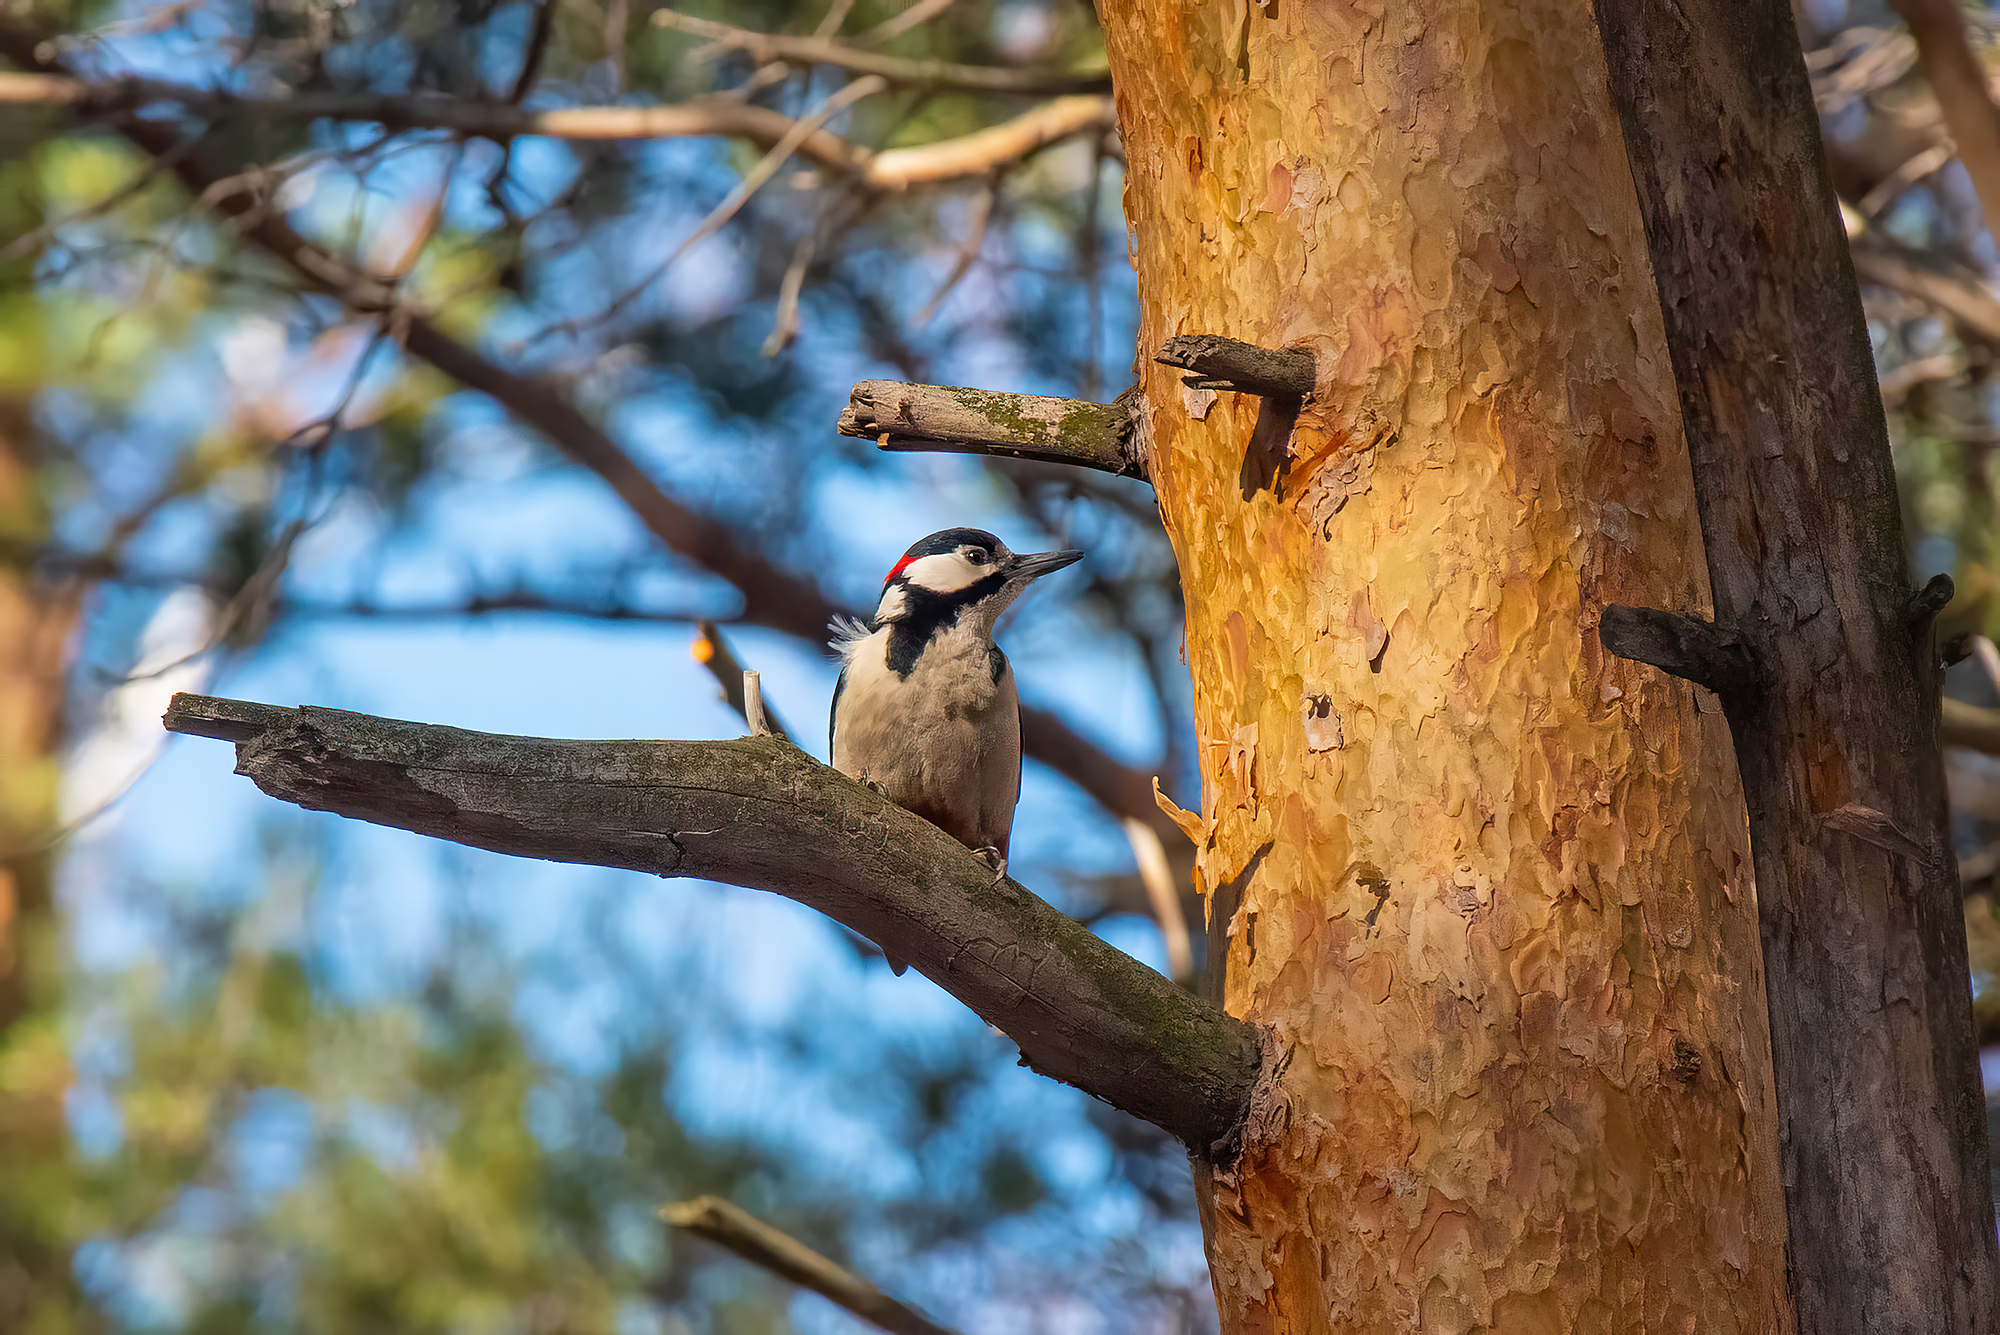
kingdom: Animalia
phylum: Chordata
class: Aves
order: Piciformes
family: Picidae
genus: Dendrocopos
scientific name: Dendrocopos major
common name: Great spotted woodpecker
